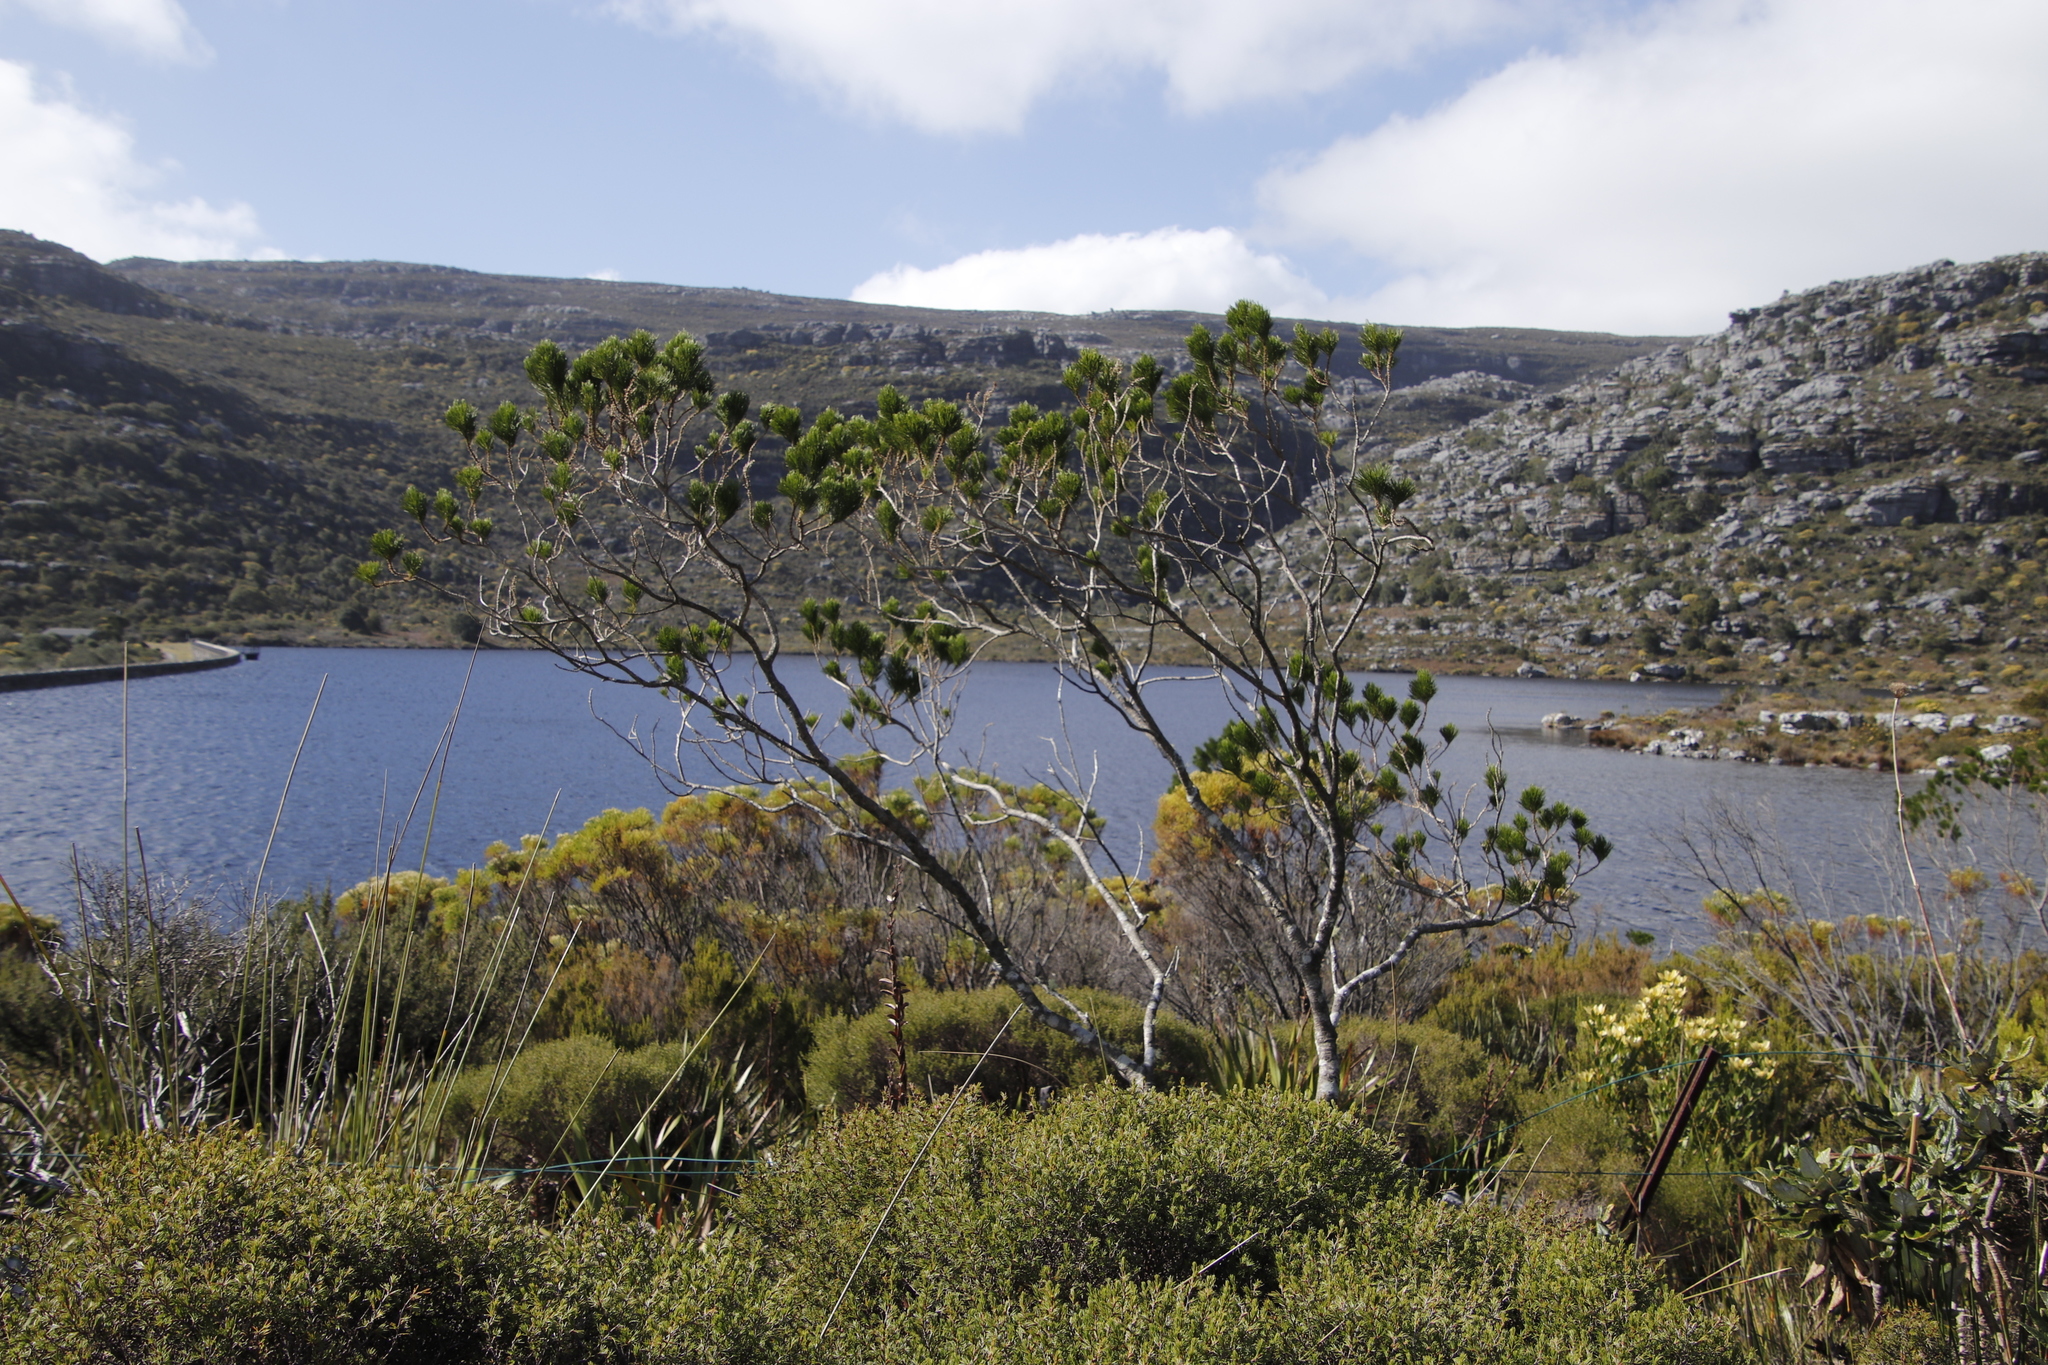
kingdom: Plantae
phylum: Tracheophyta
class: Magnoliopsida
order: Fabales
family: Fabaceae
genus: Psoralea
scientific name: Psoralea pinnata
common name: African scurfpea
